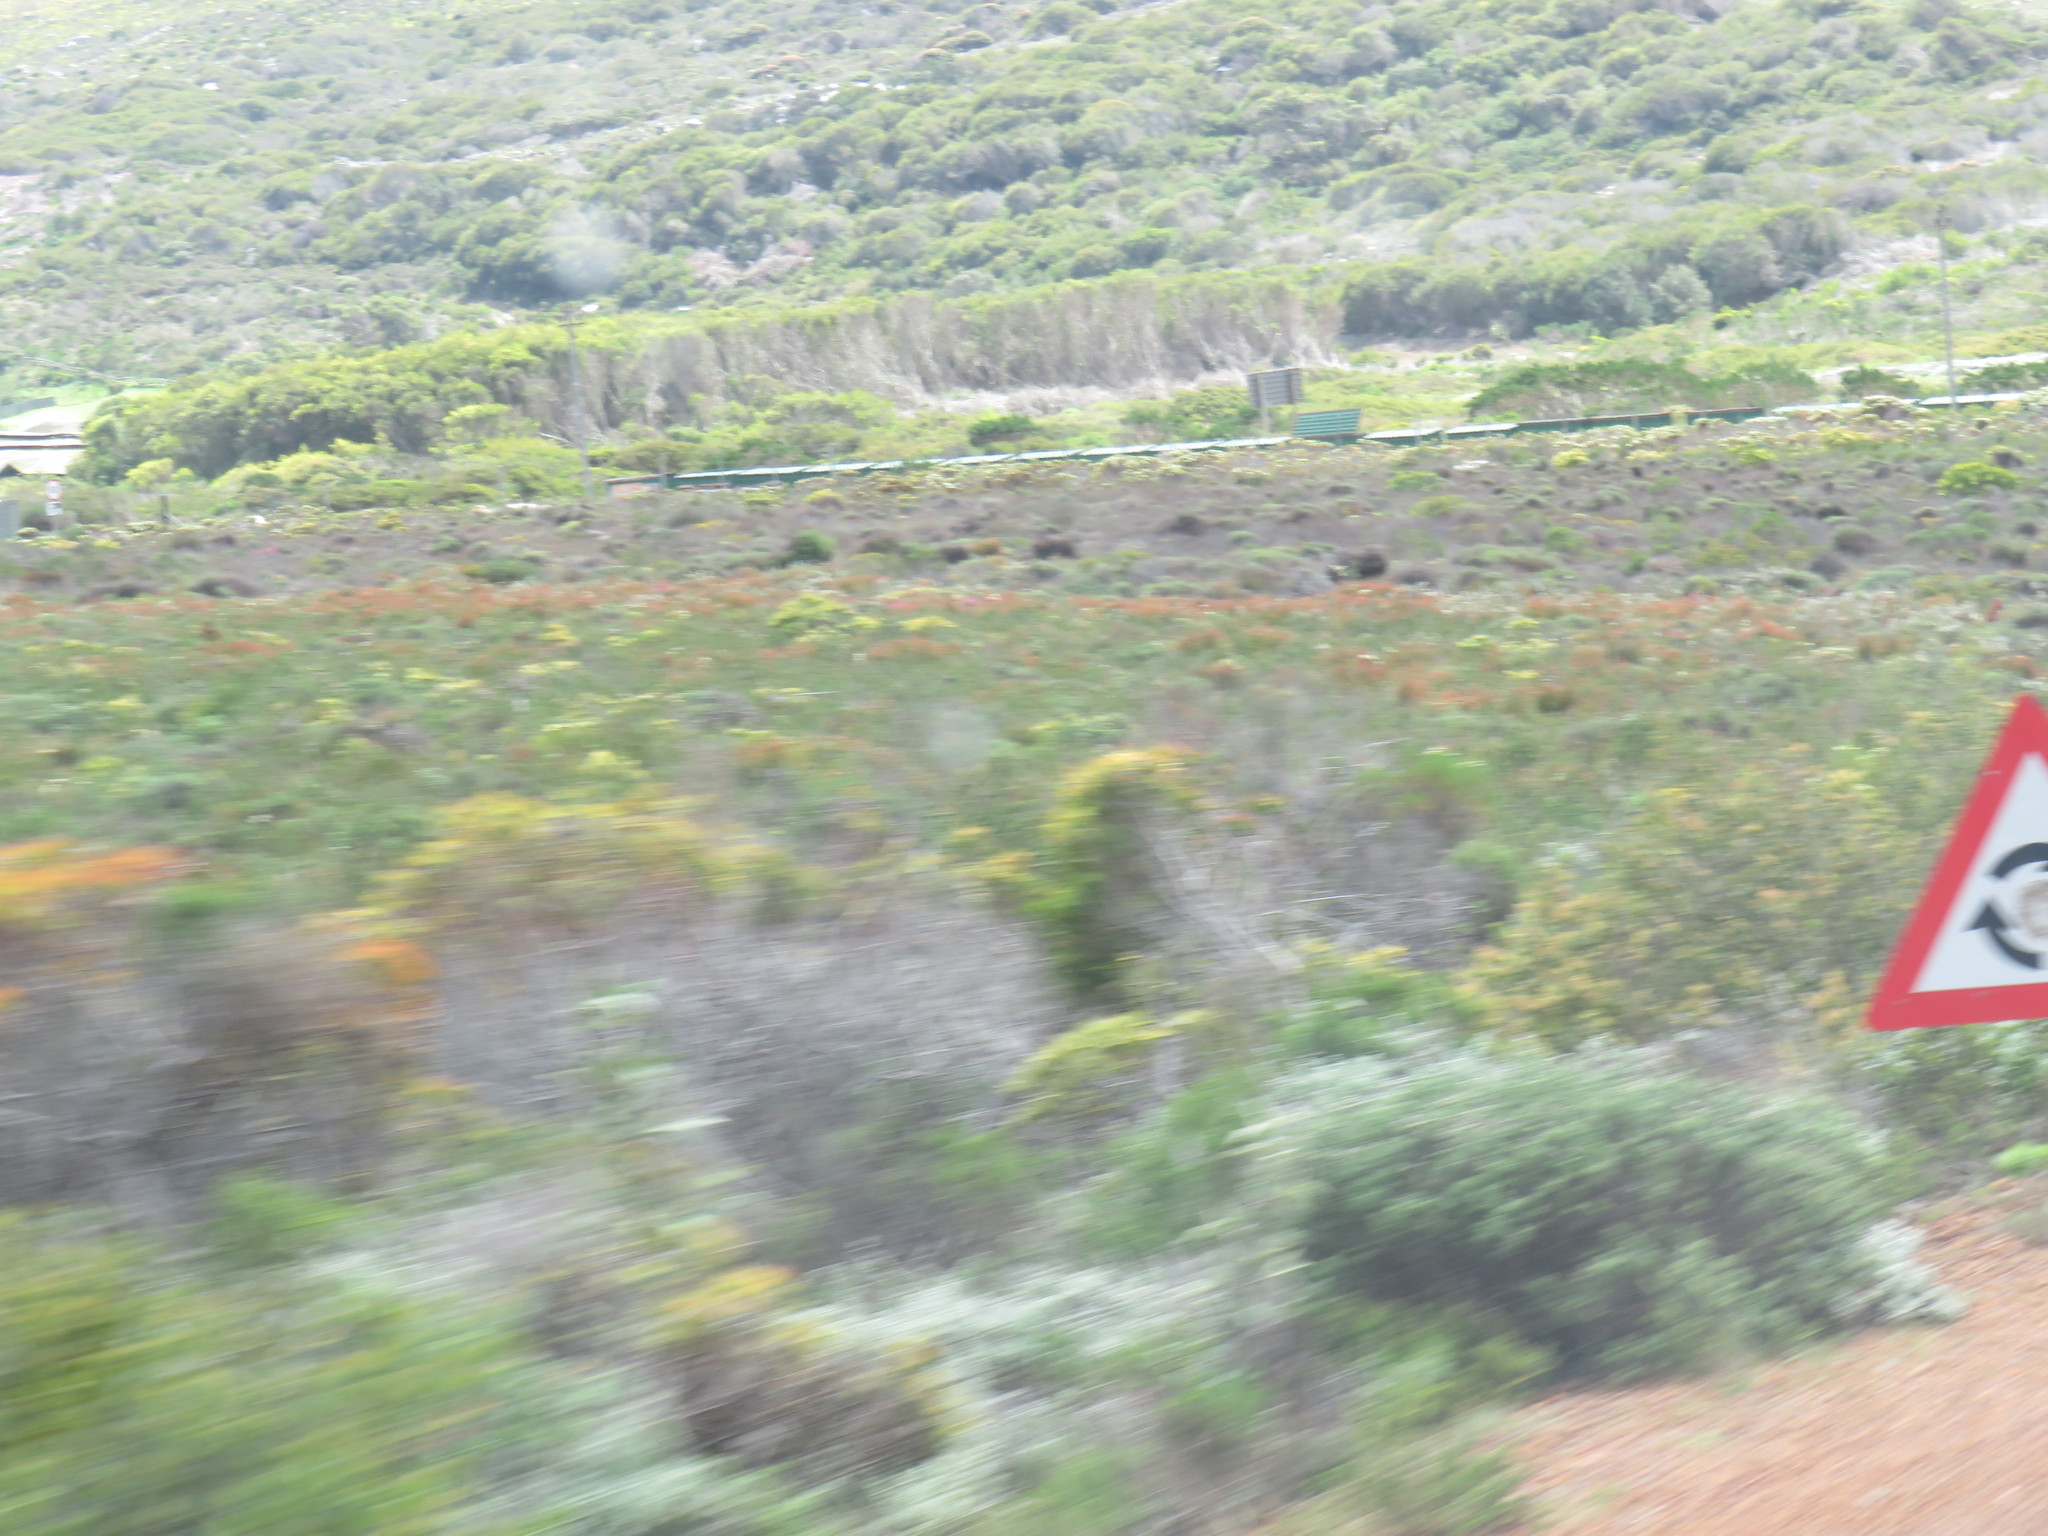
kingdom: Plantae
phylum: Tracheophyta
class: Magnoliopsida
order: Proteales
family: Proteaceae
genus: Leucadendron
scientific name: Leucadendron salignum
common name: Common sunshine conebush
